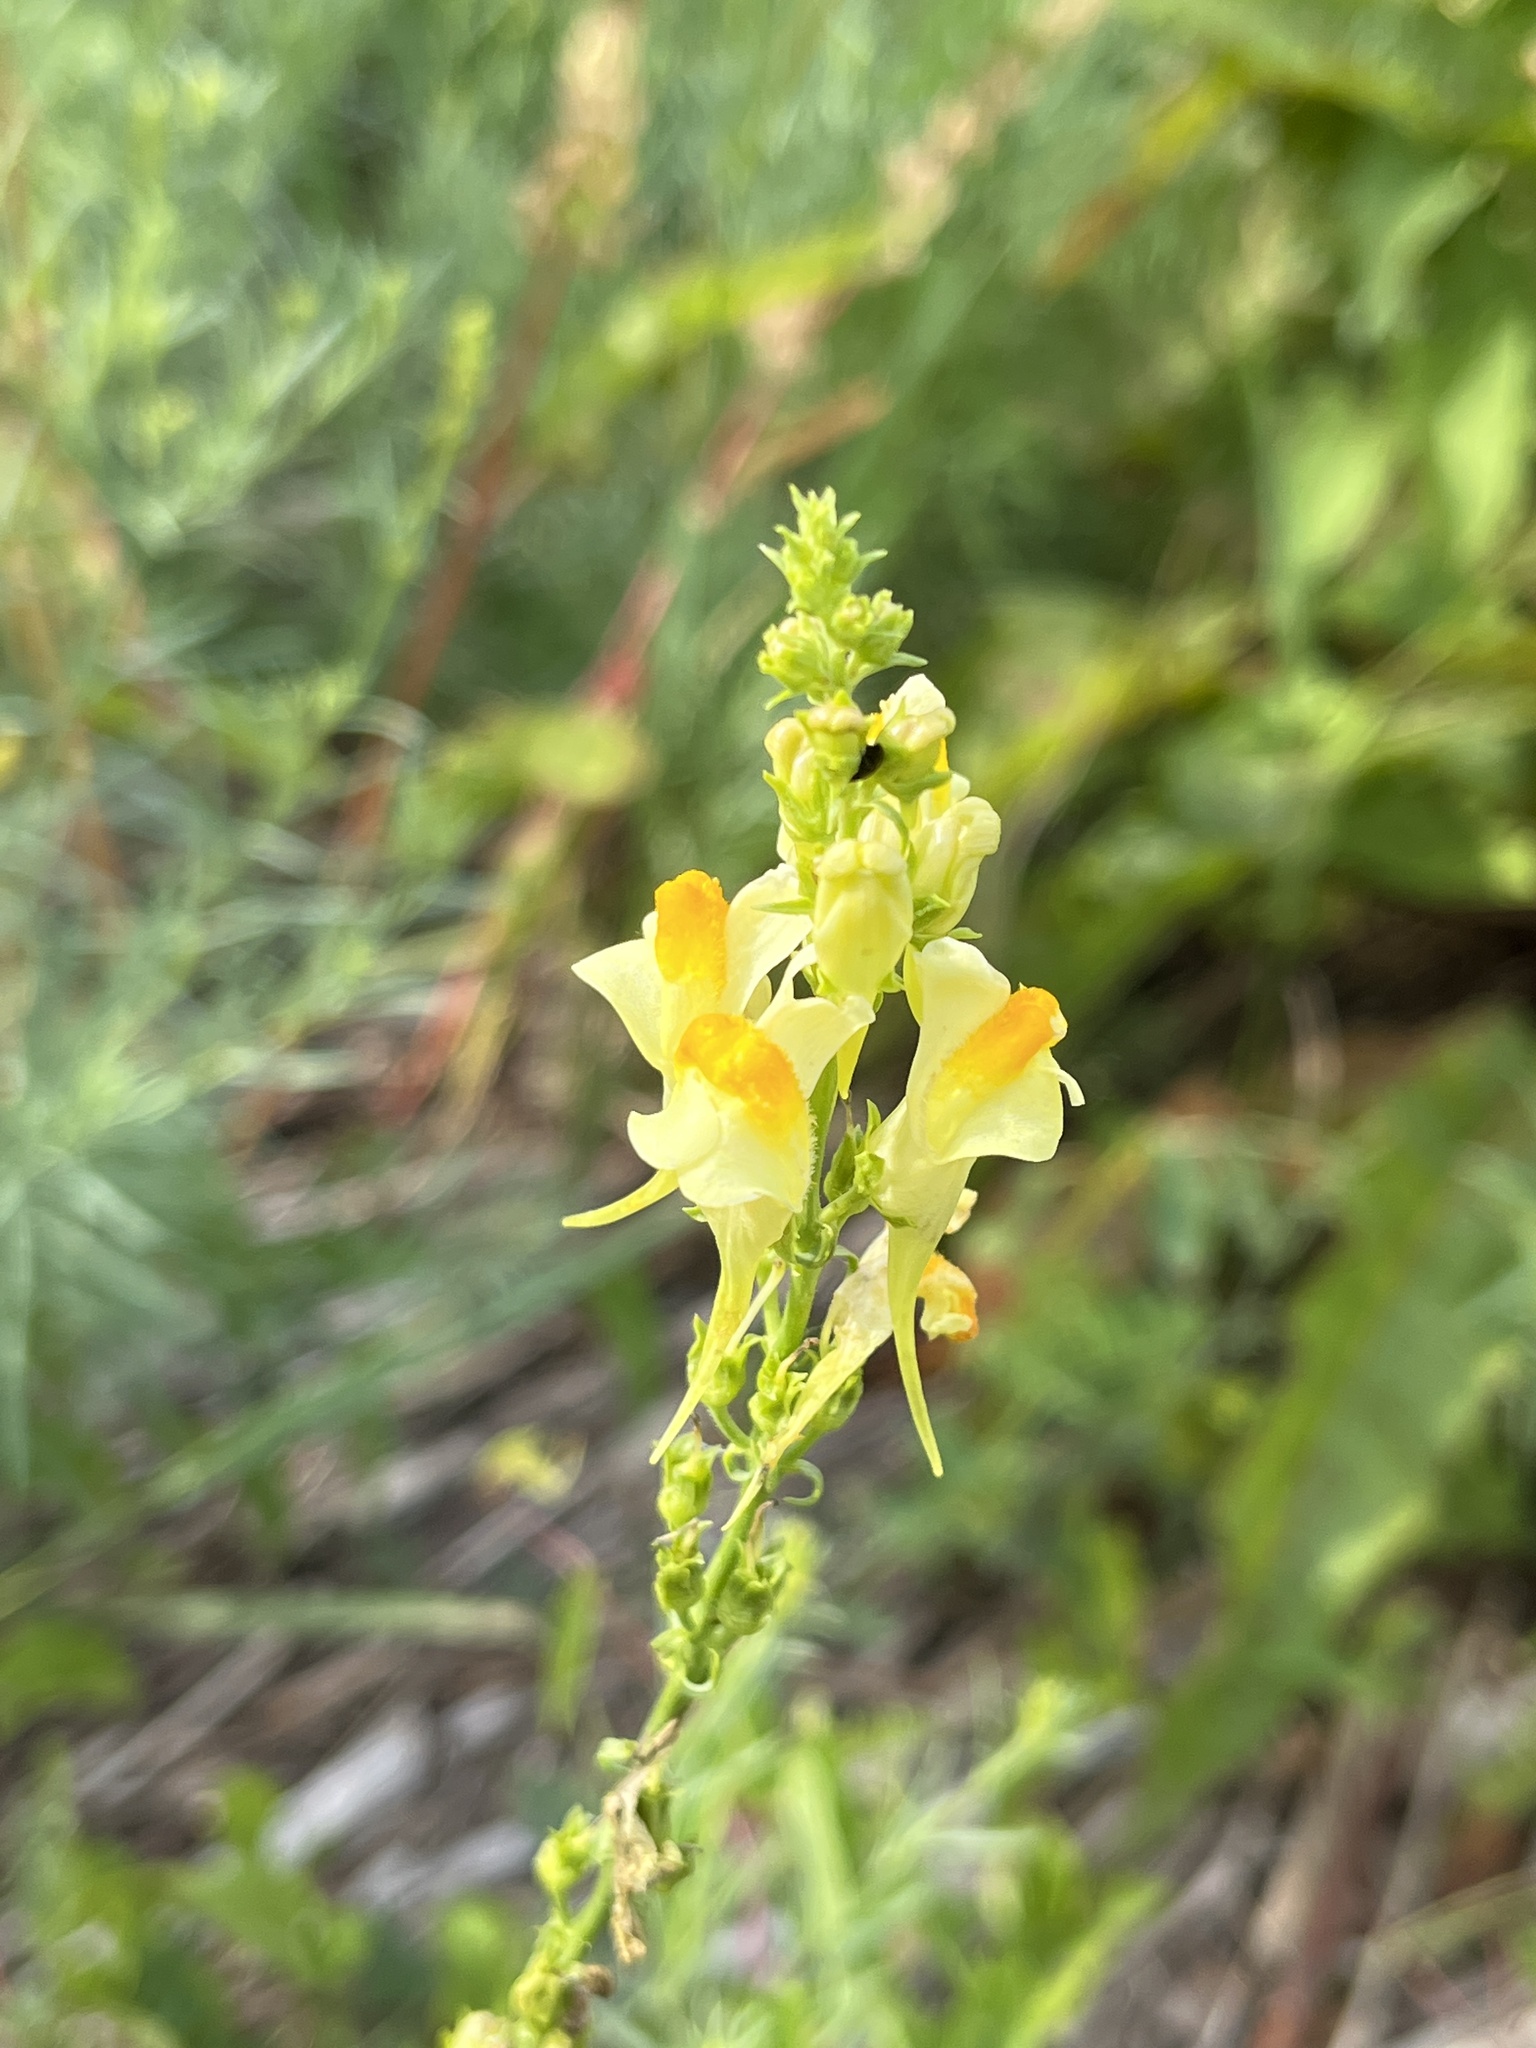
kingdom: Plantae
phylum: Tracheophyta
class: Magnoliopsida
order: Lamiales
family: Plantaginaceae
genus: Linaria
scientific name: Linaria vulgaris
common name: Butter and eggs
